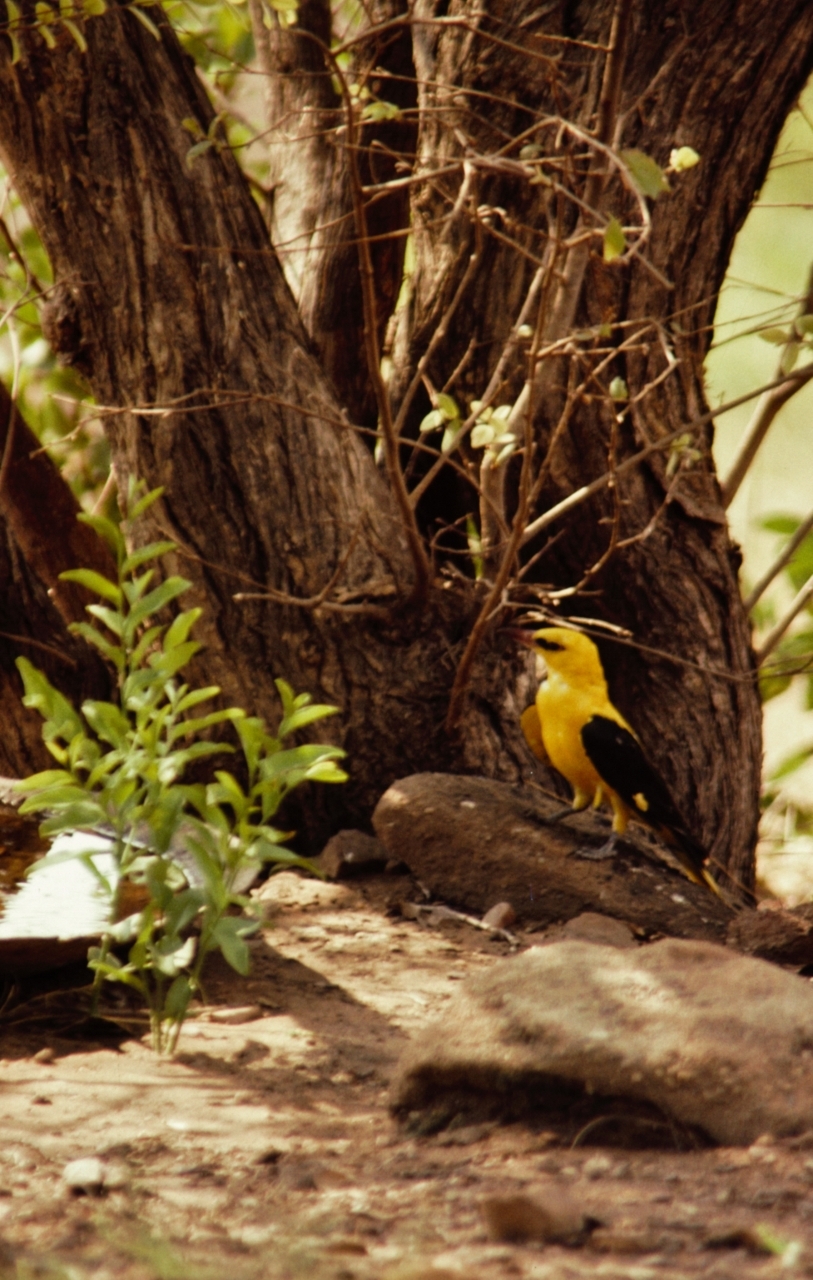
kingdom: Animalia
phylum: Chordata
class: Aves
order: Passeriformes
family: Oriolidae
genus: Oriolus
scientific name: Oriolus oriolus
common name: Eurasian golden oriole
